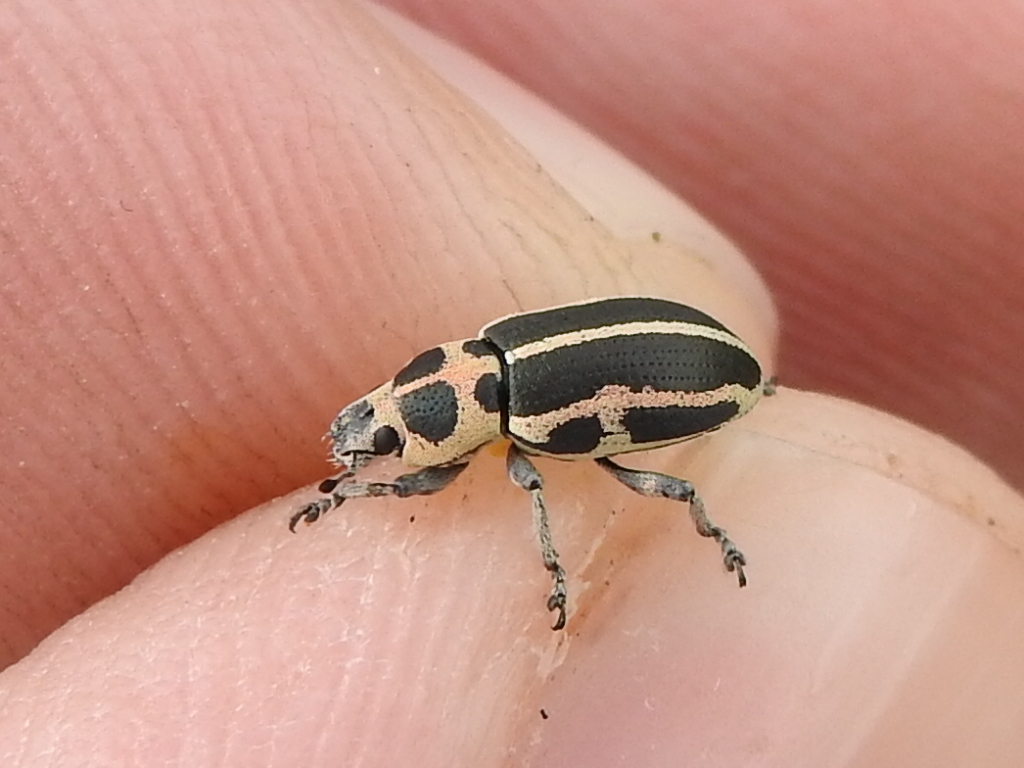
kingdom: Animalia
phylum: Arthropoda
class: Insecta
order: Coleoptera
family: Curculionidae
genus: Eudiagogus
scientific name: Eudiagogus pulcher
